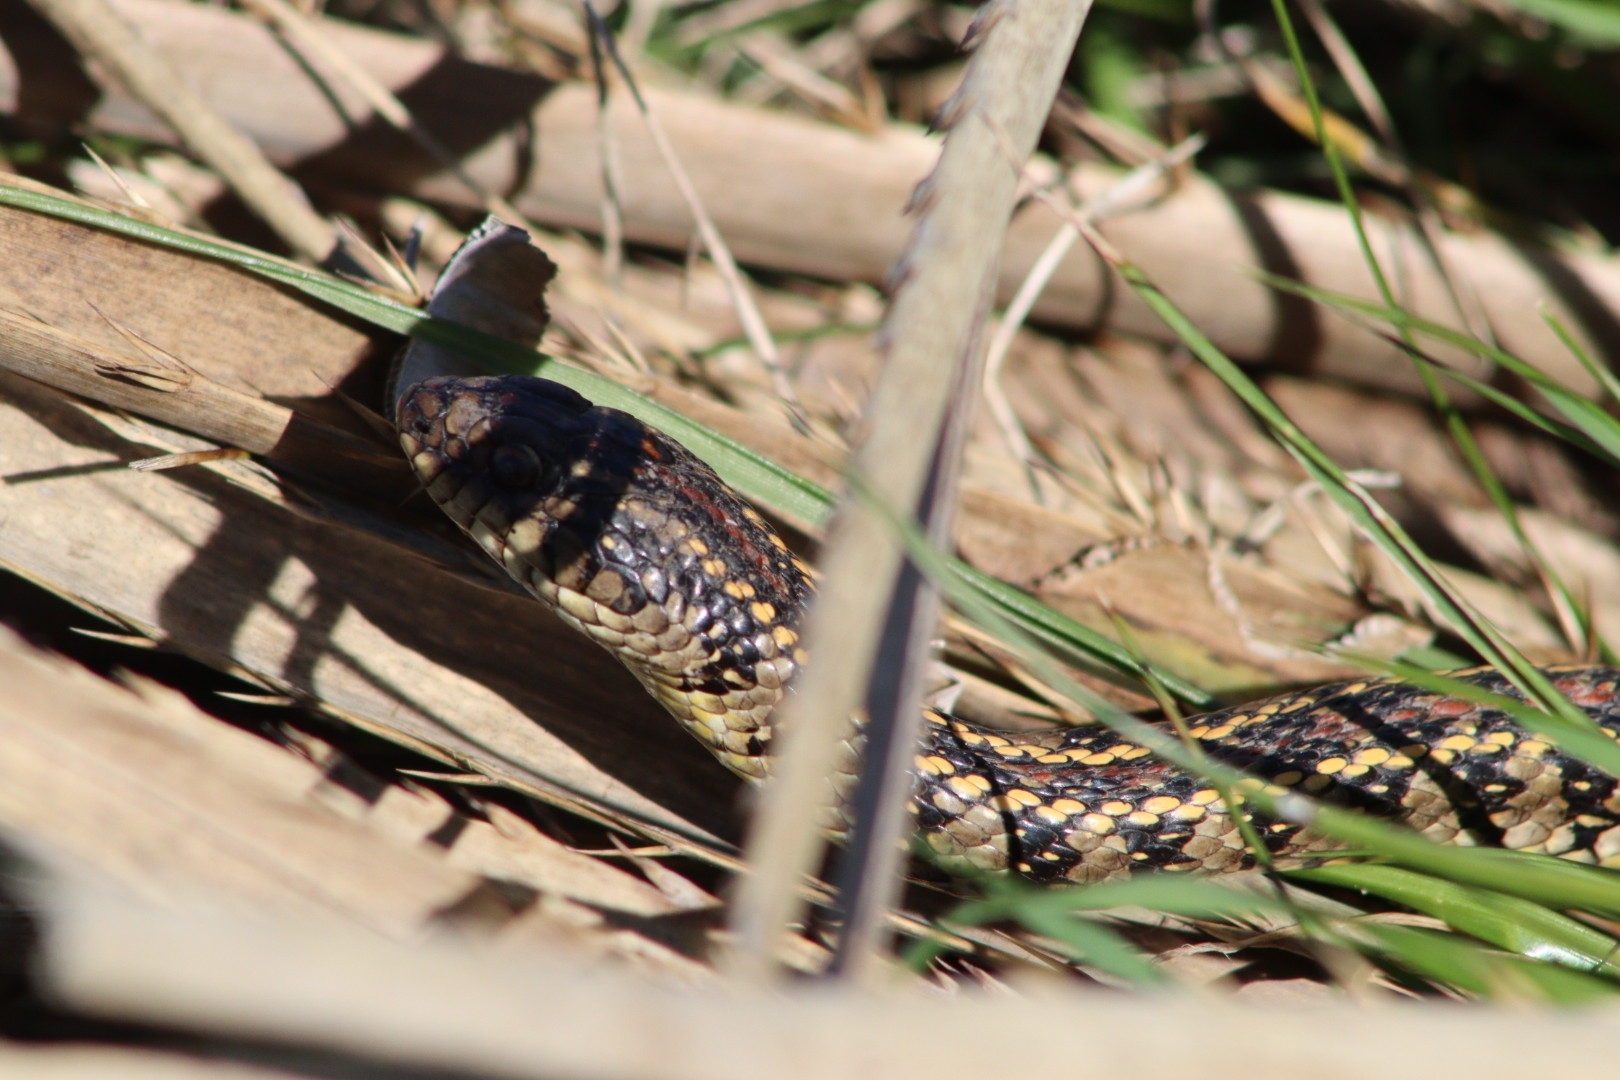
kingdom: Animalia
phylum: Chordata
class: Squamata
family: Colubridae
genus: Lygophis
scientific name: Lygophis anomalus
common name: English common name not available
